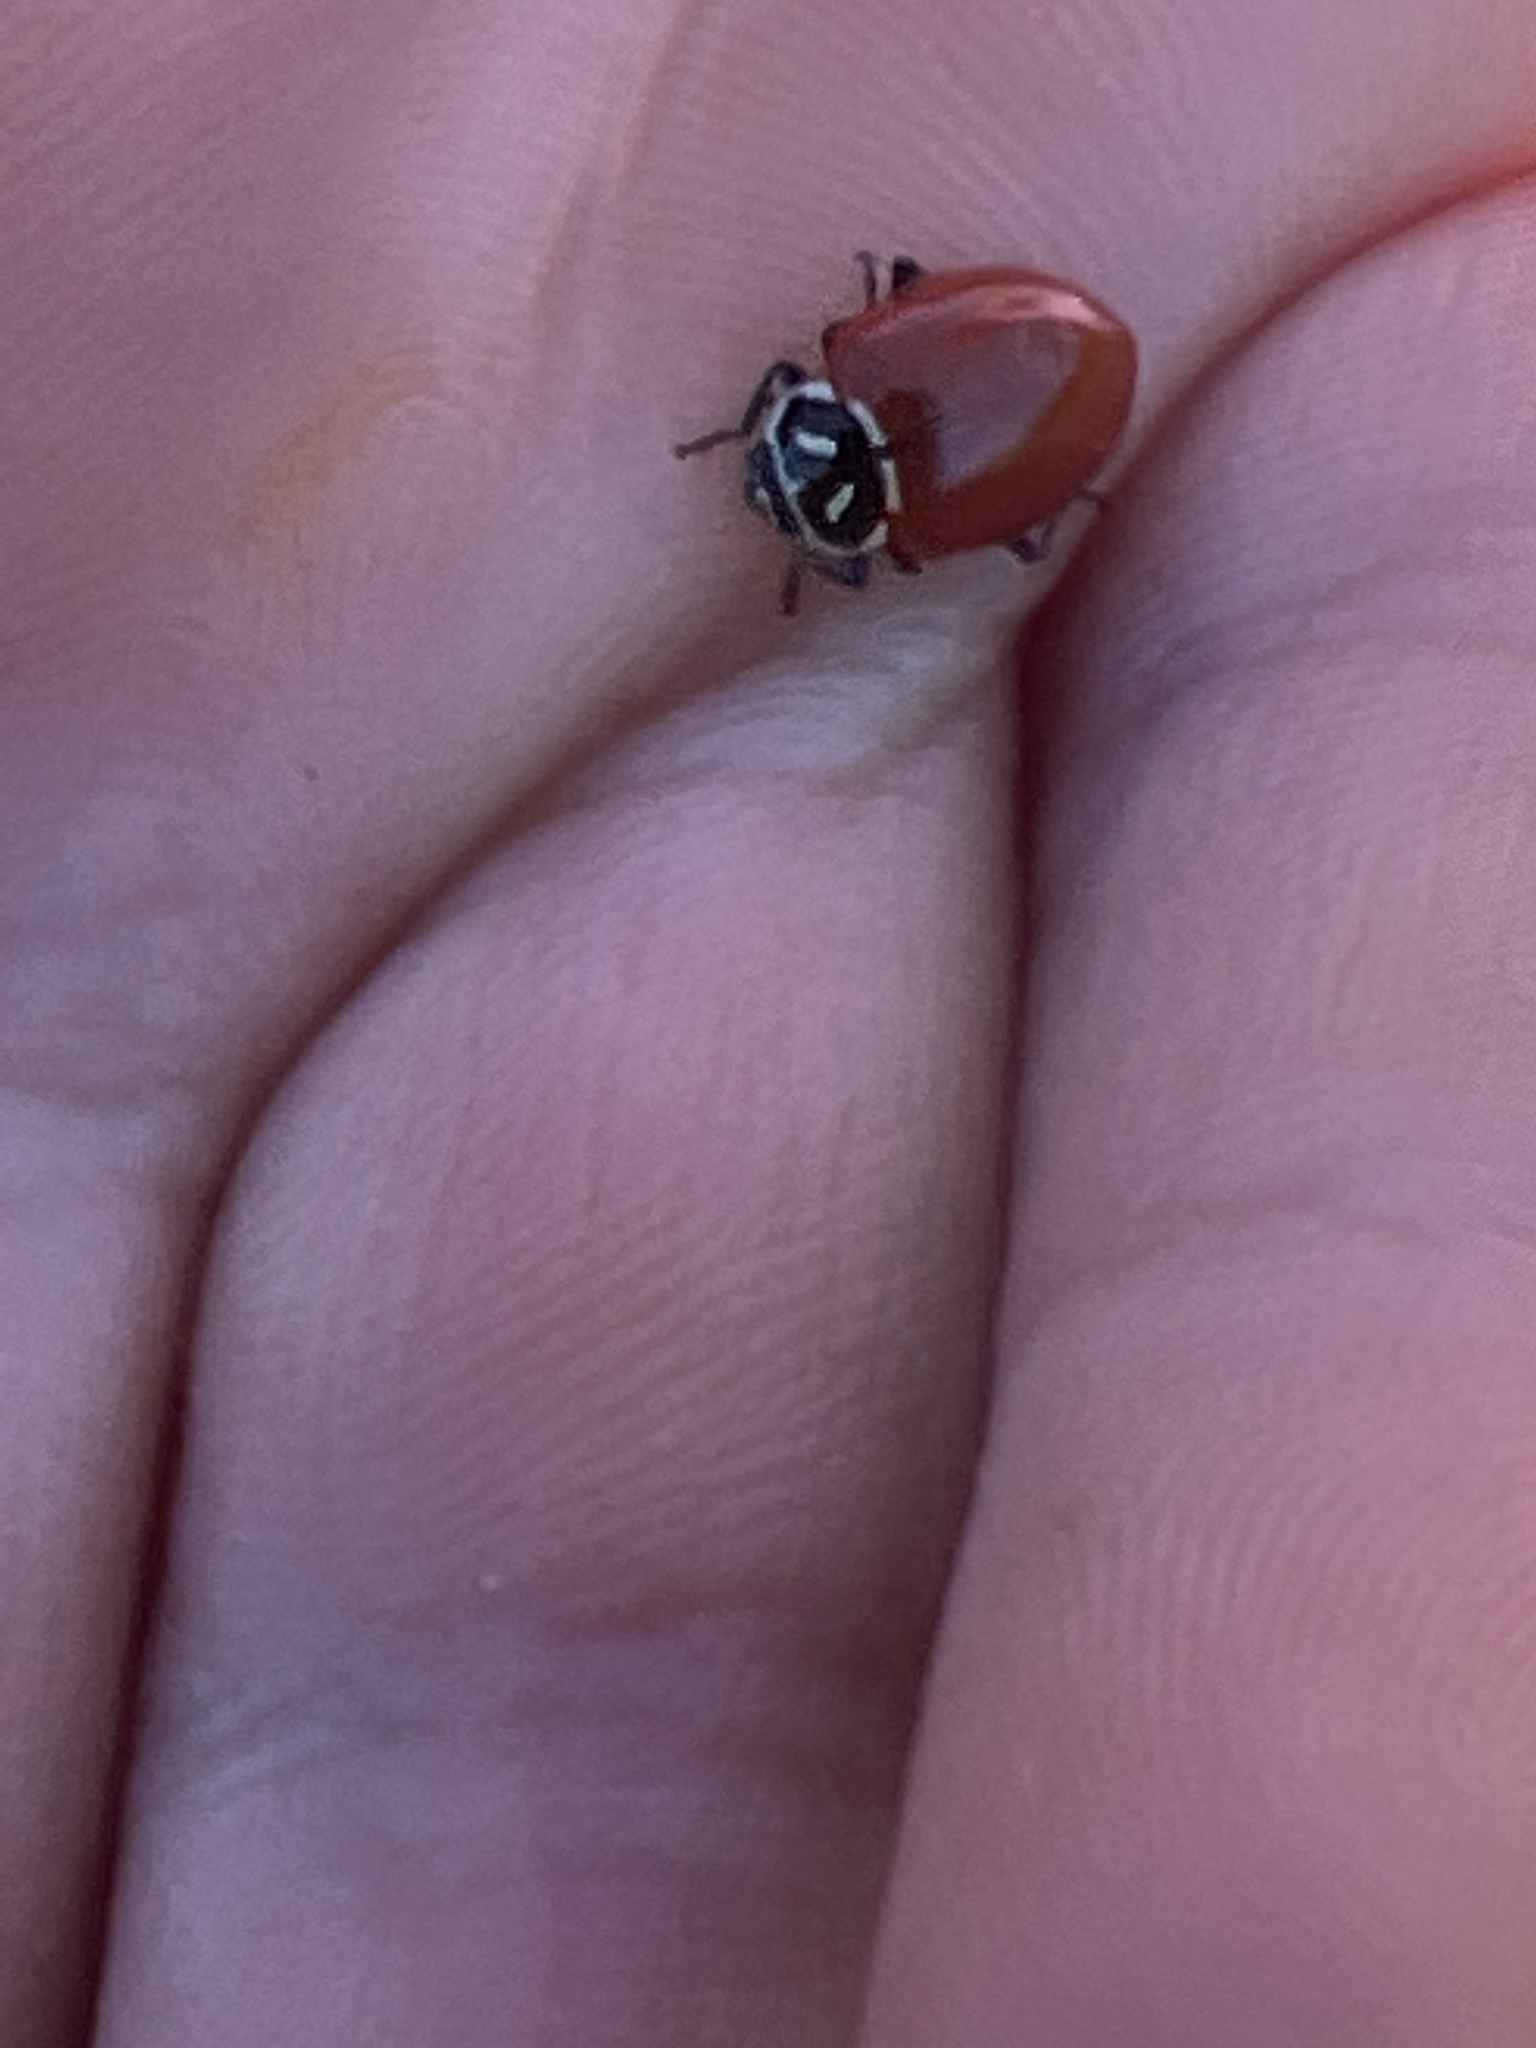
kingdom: Animalia
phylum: Arthropoda
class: Insecta
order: Coleoptera
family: Coccinellidae
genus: Hippodamia
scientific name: Hippodamia convergens
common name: Convergent lady beetle
